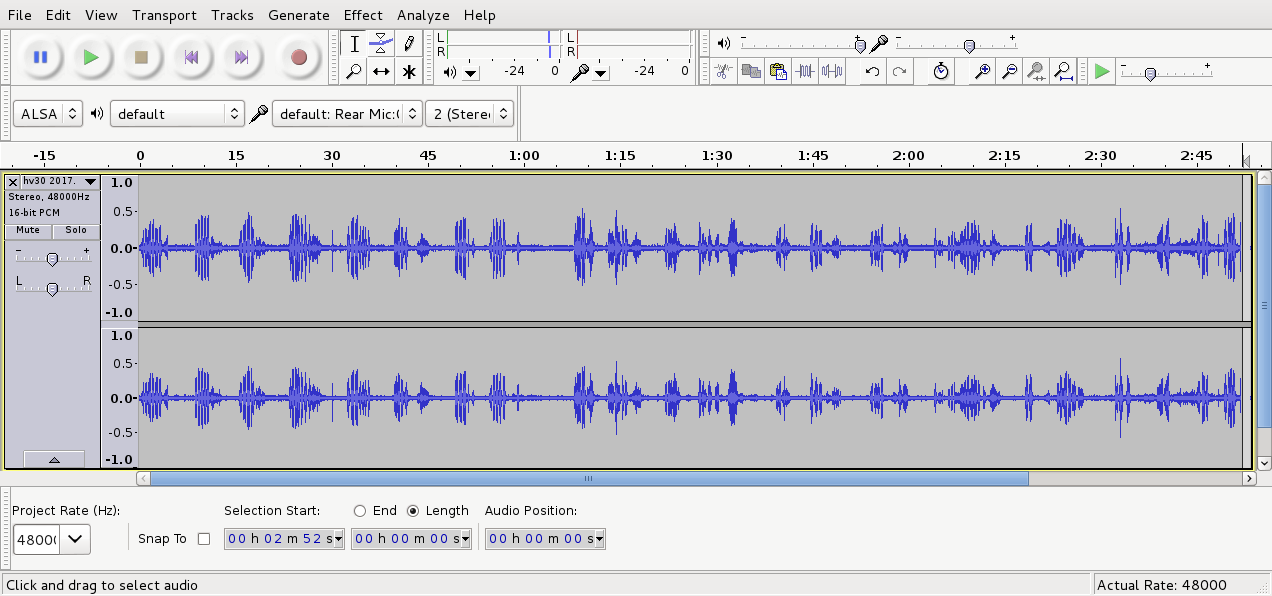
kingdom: Animalia
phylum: Chordata
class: Aves
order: Passeriformes
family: Turdidae
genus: Turdus
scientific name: Turdus philomelos
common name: Song thrush
